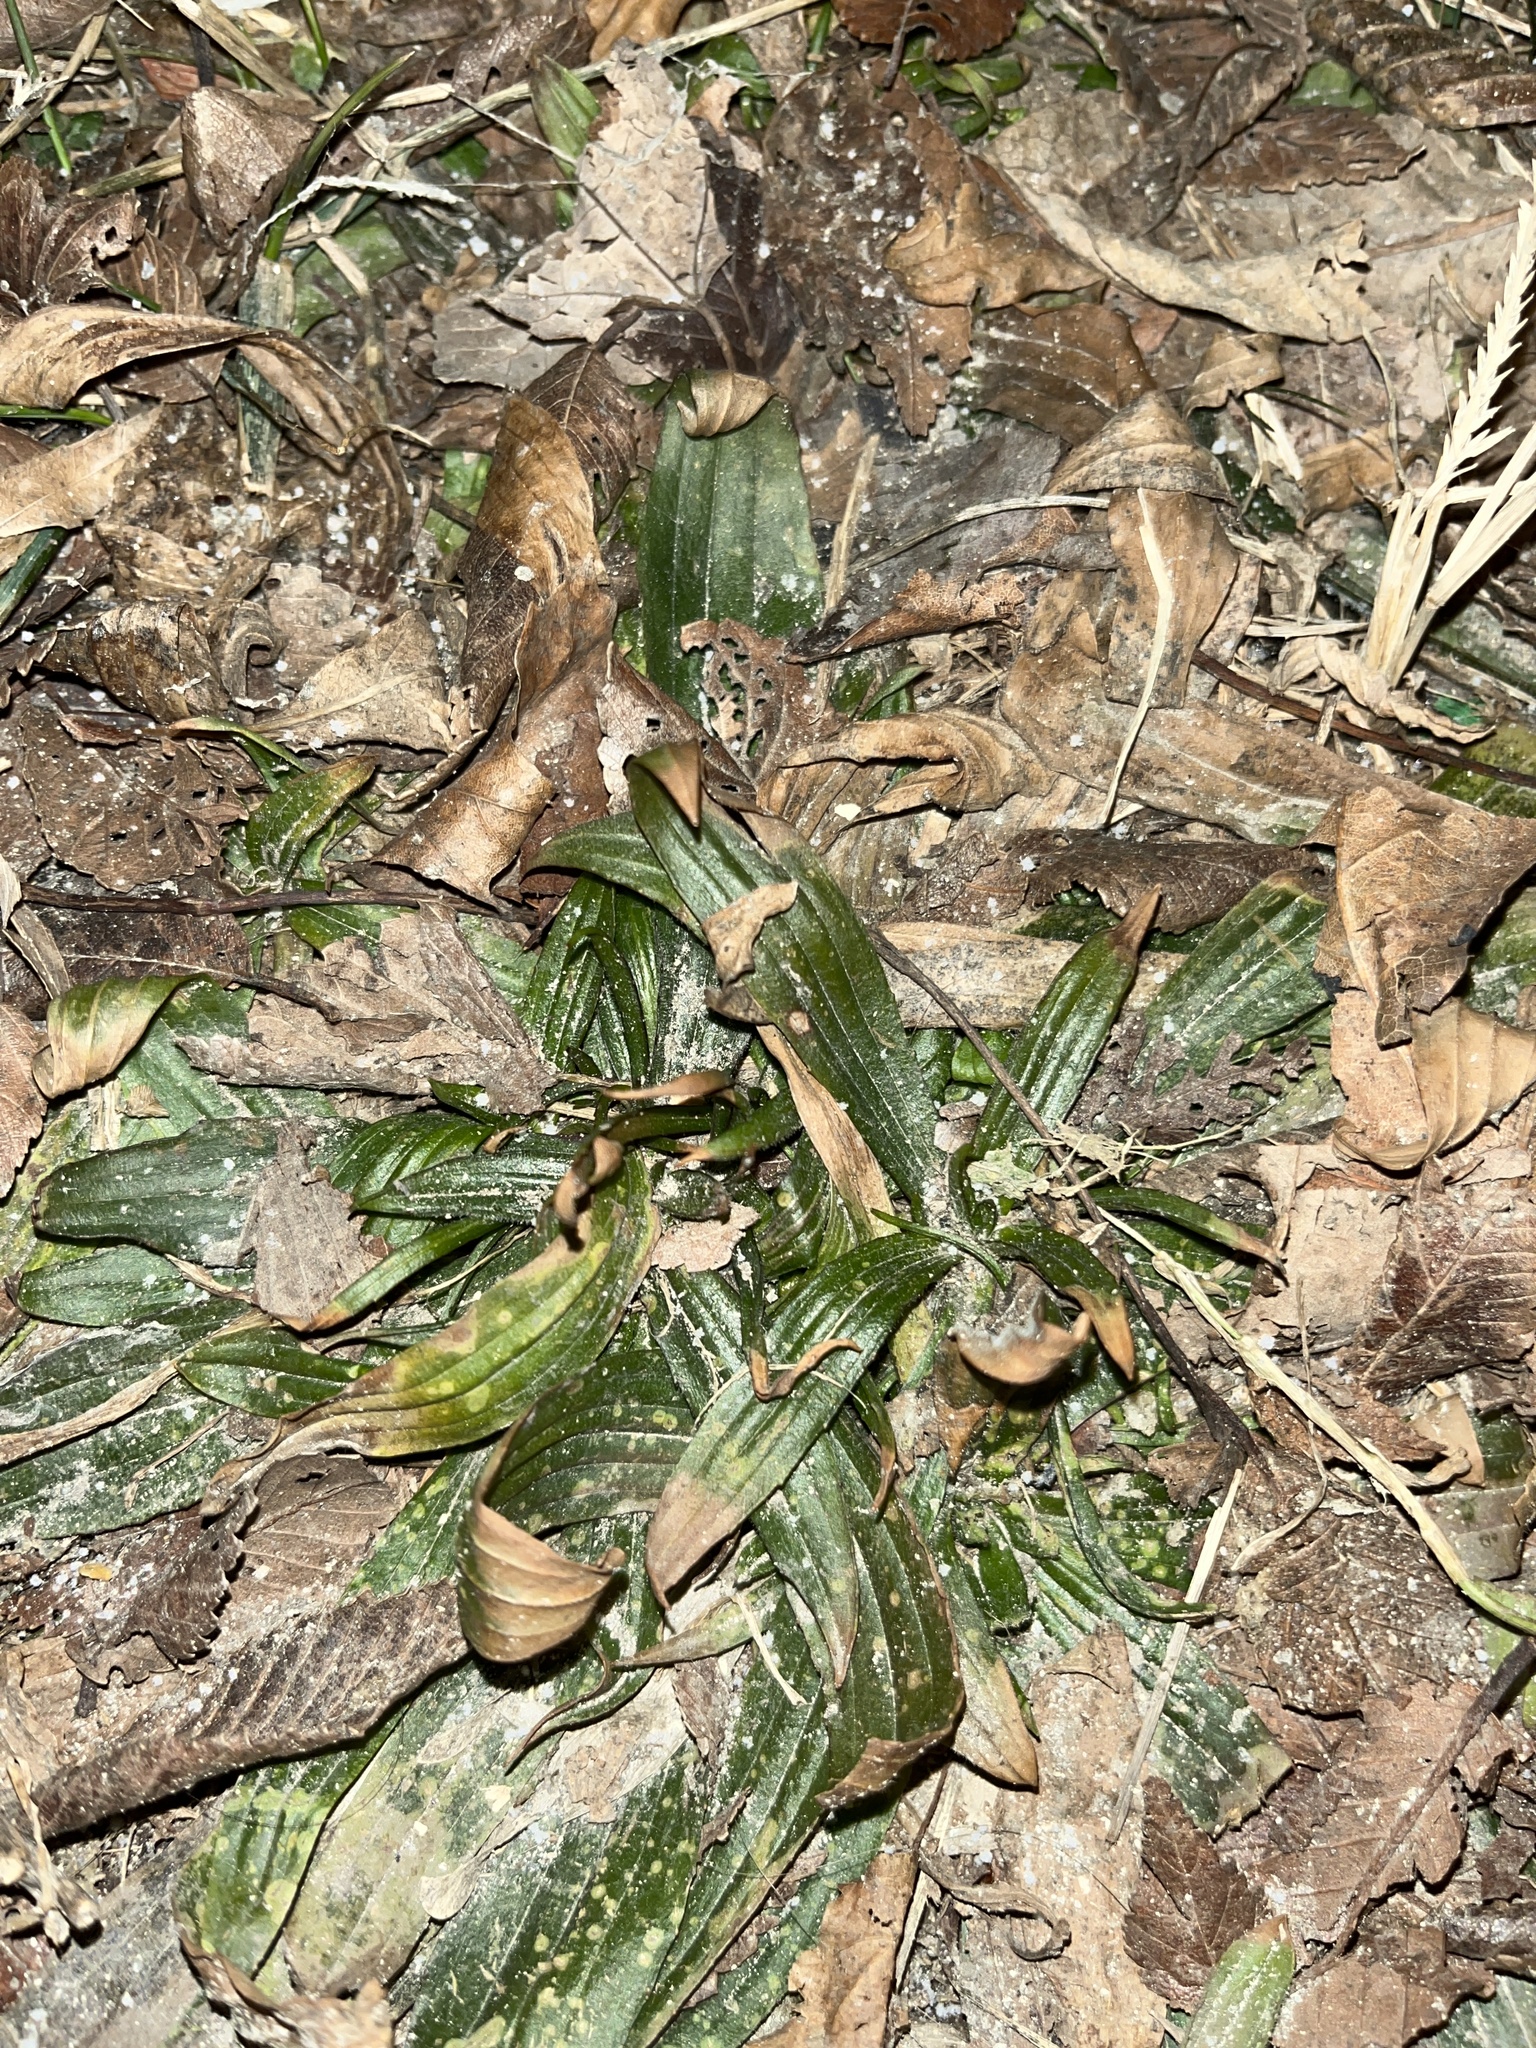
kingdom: Plantae
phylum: Tracheophyta
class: Magnoliopsida
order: Lamiales
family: Plantaginaceae
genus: Plantago
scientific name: Plantago lanceolata
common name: Ribwort plantain
